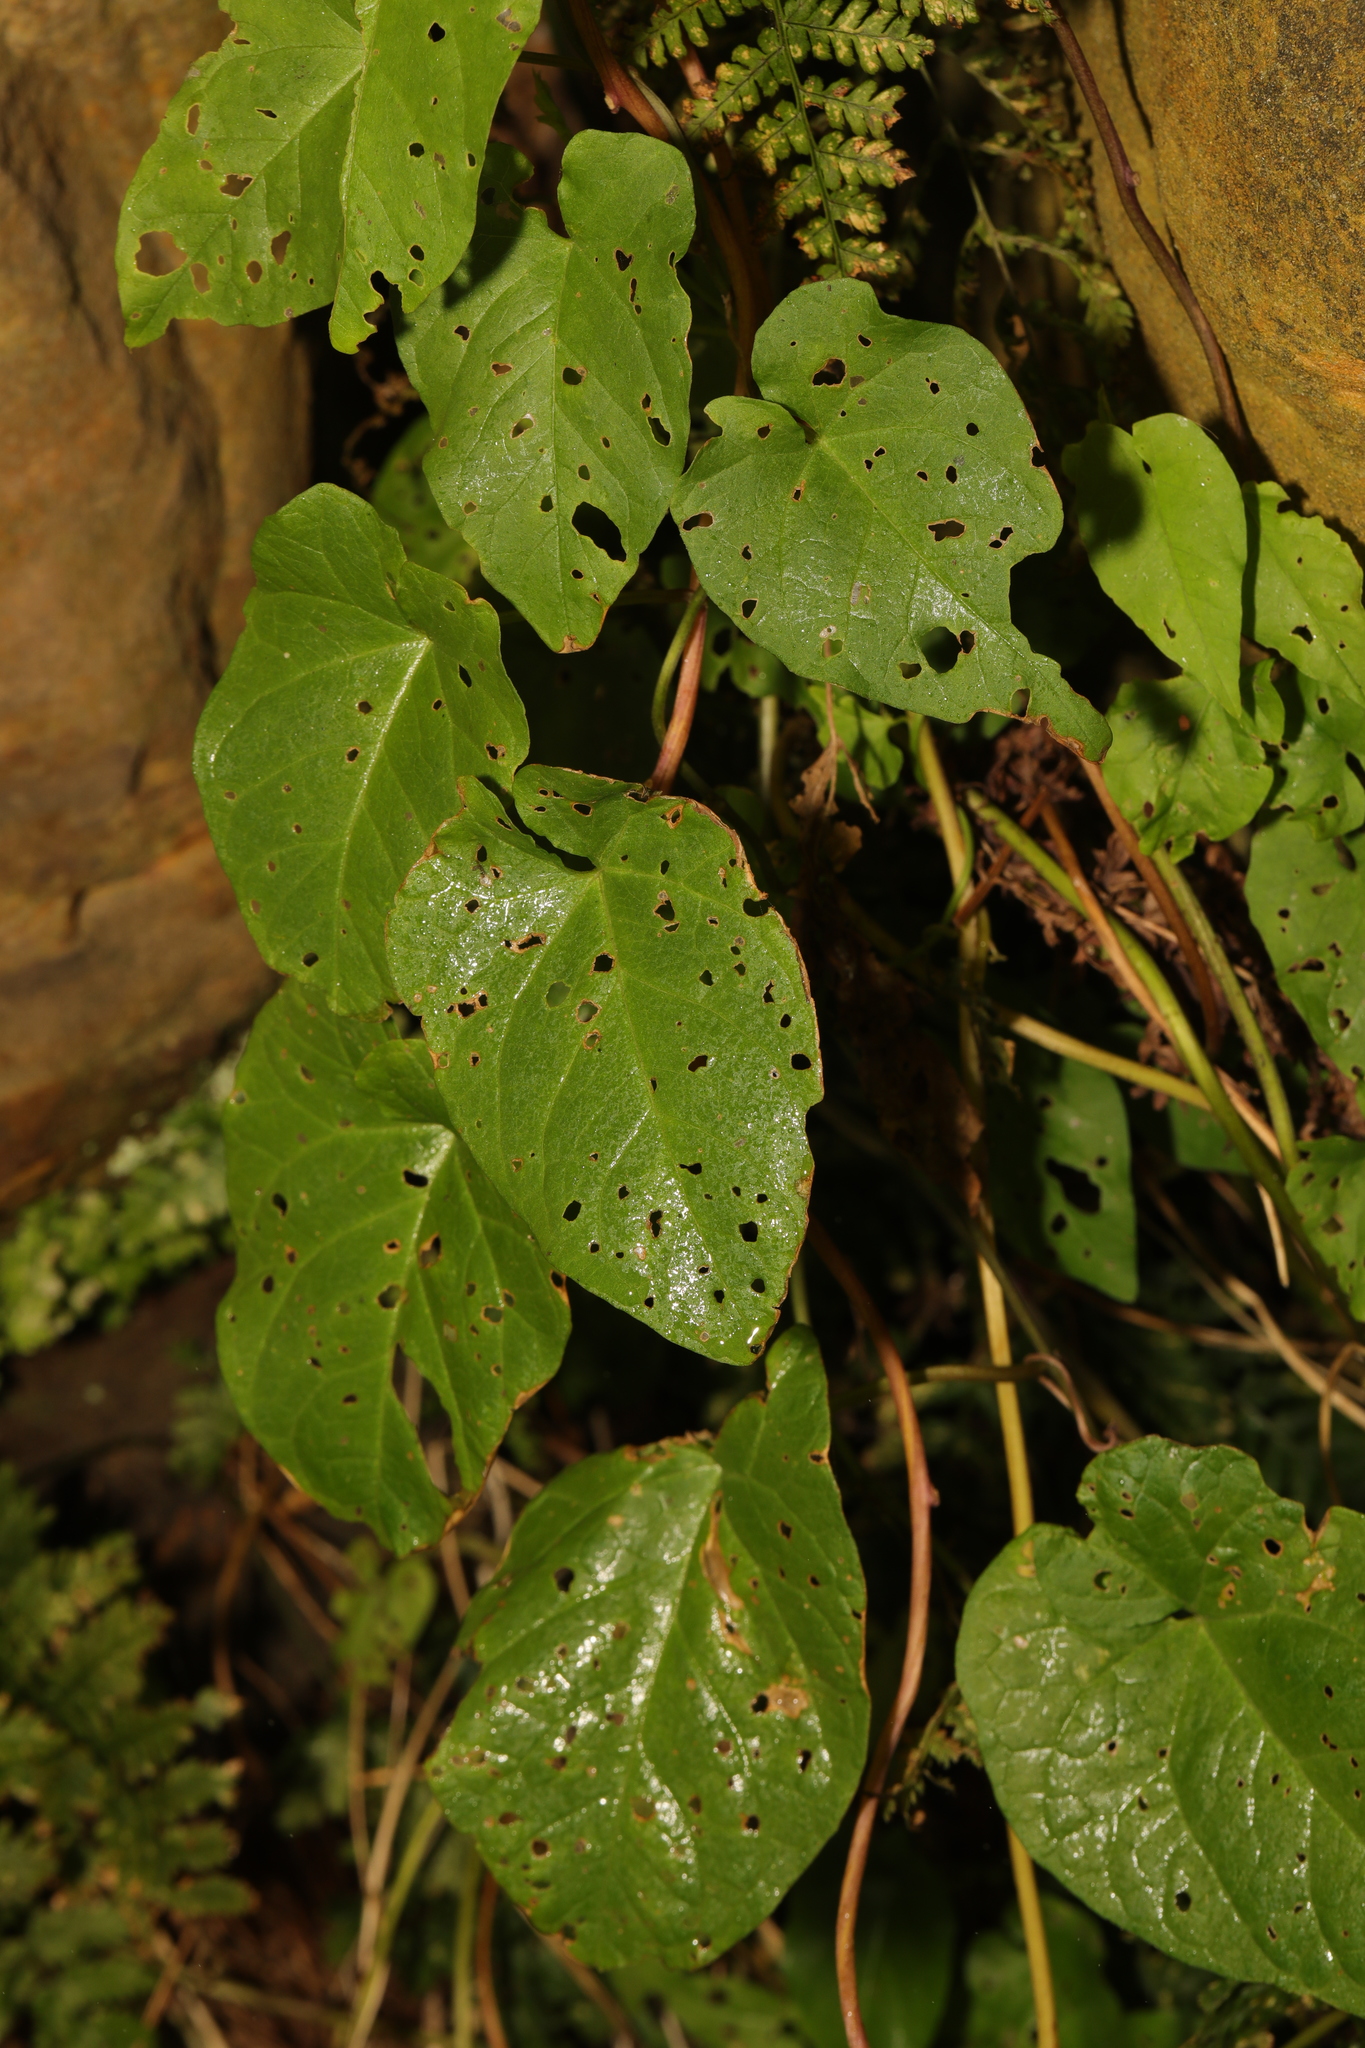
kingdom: Plantae
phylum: Tracheophyta
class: Magnoliopsida
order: Solanales
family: Convolvulaceae
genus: Calystegia
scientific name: Calystegia
